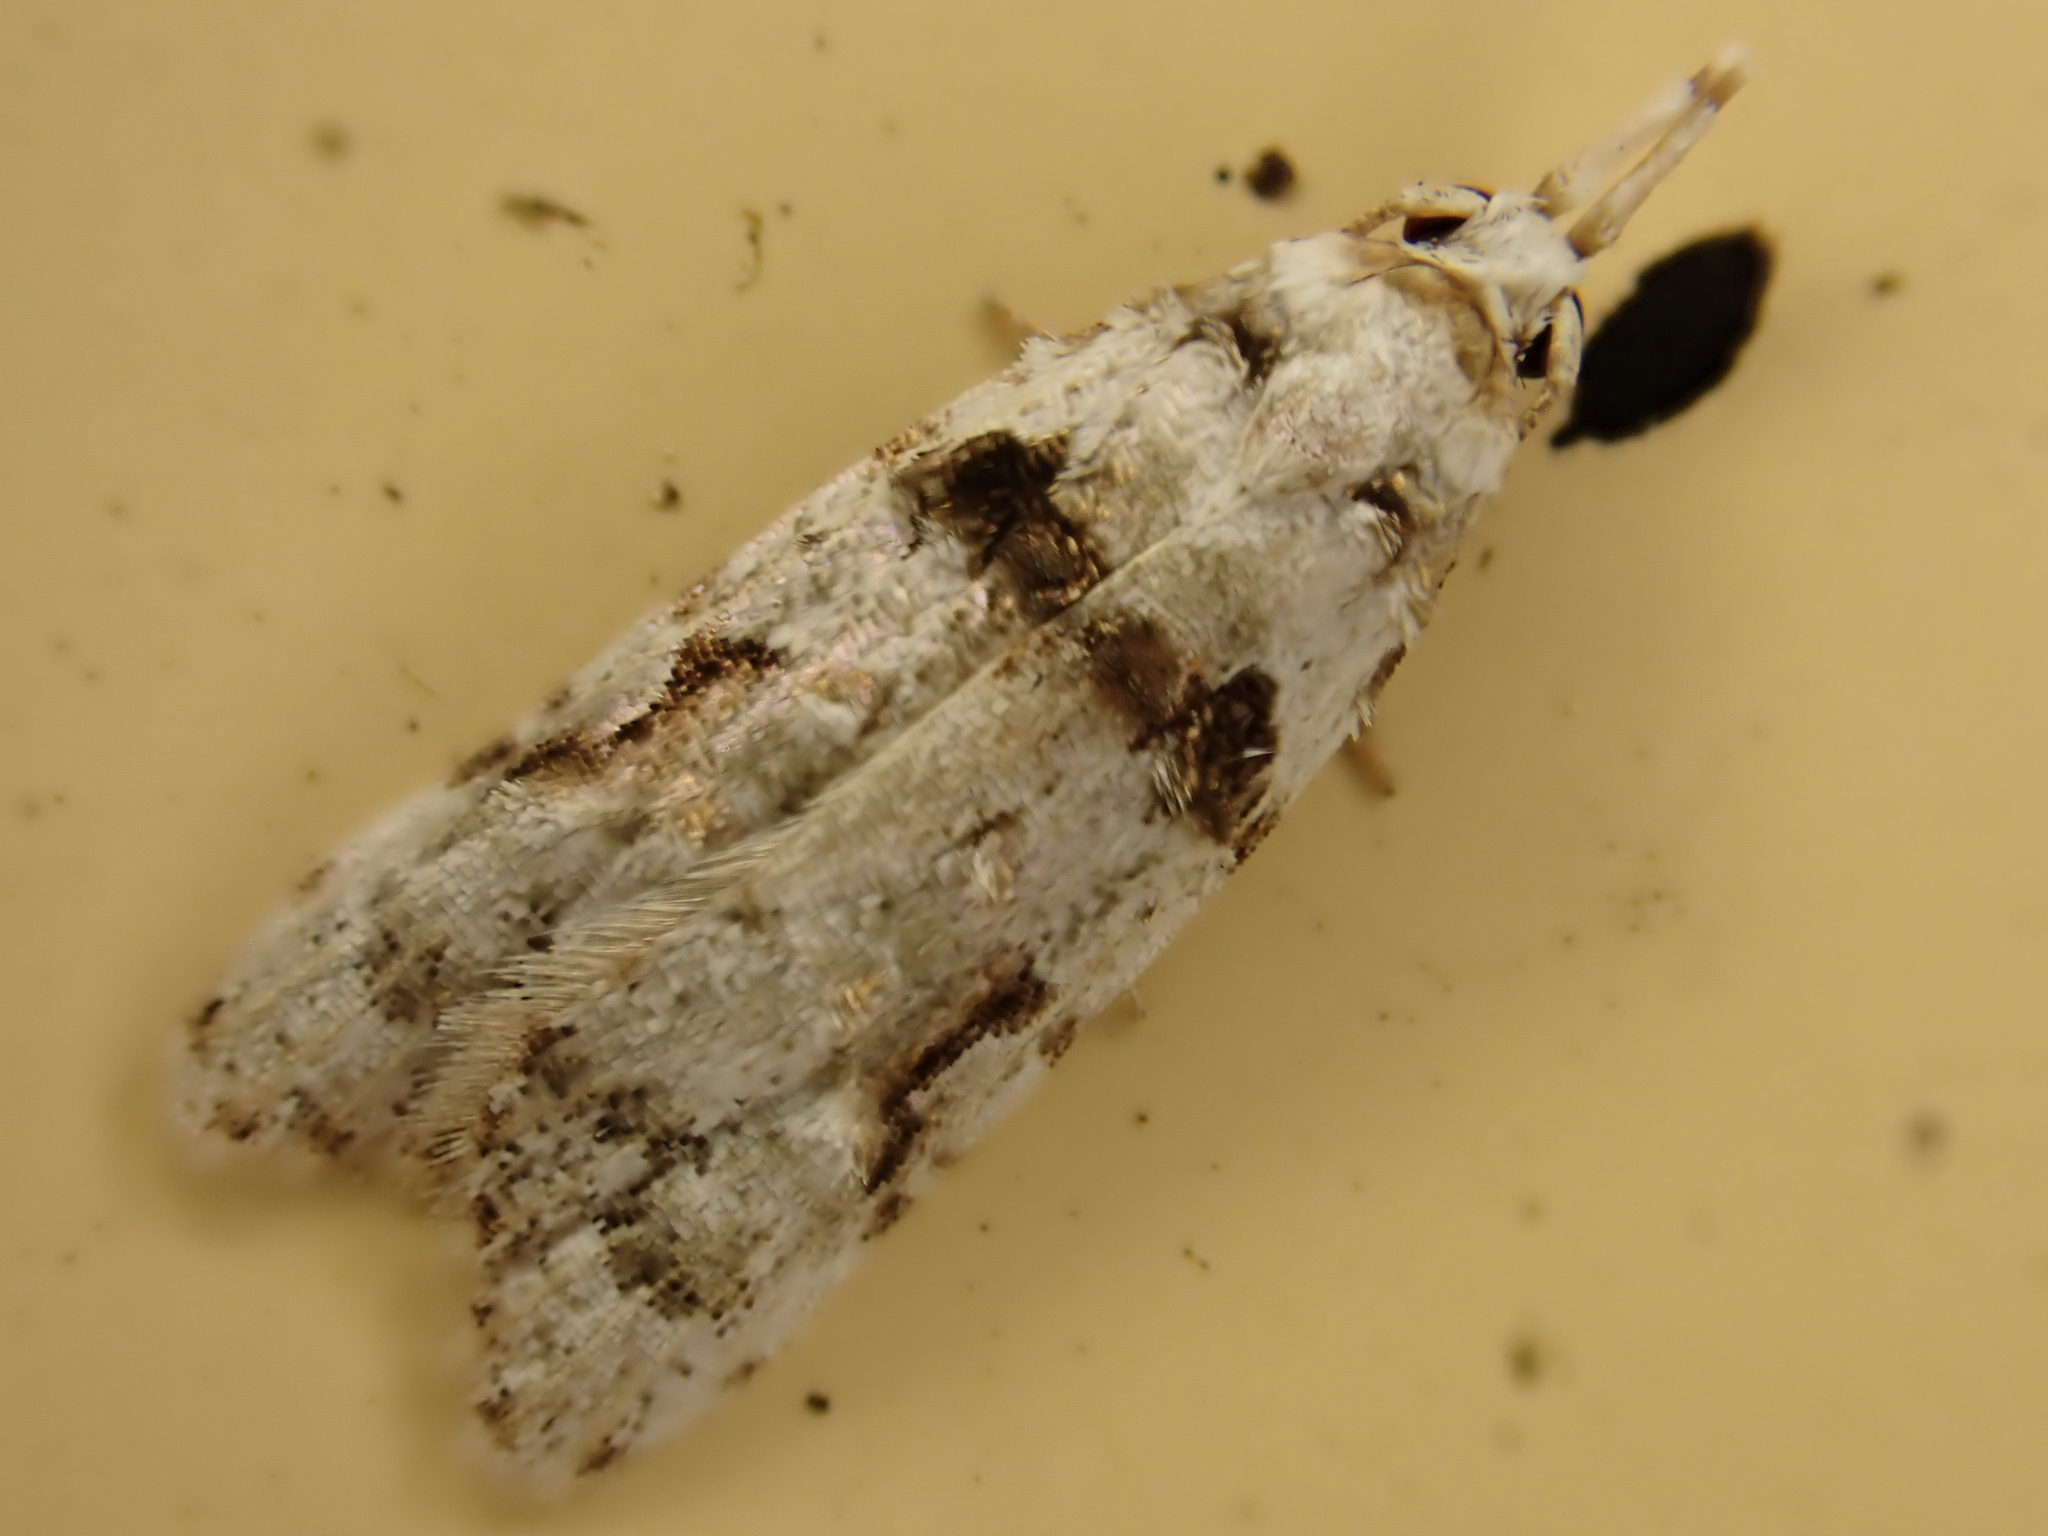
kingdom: Animalia
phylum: Arthropoda
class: Insecta
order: Lepidoptera
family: Carposinidae
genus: Coscinoptycha
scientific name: Coscinoptycha improbana
